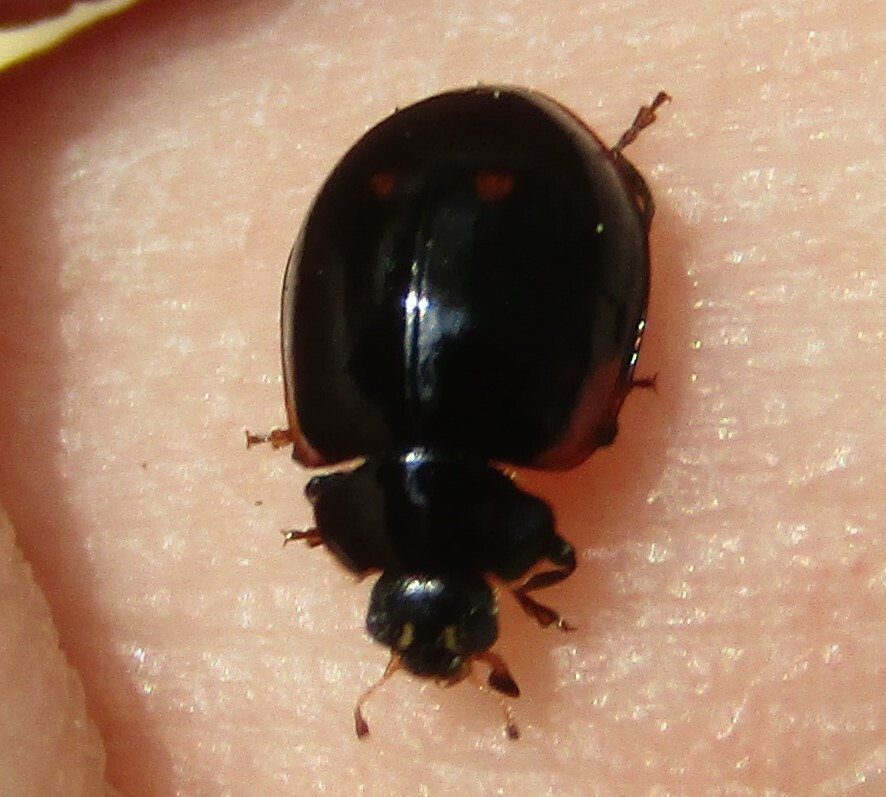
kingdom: Animalia
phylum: Arthropoda
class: Insecta
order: Coleoptera
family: Coccinellidae
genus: Adalia
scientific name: Adalia bipunctata
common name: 2-spot ladybird
